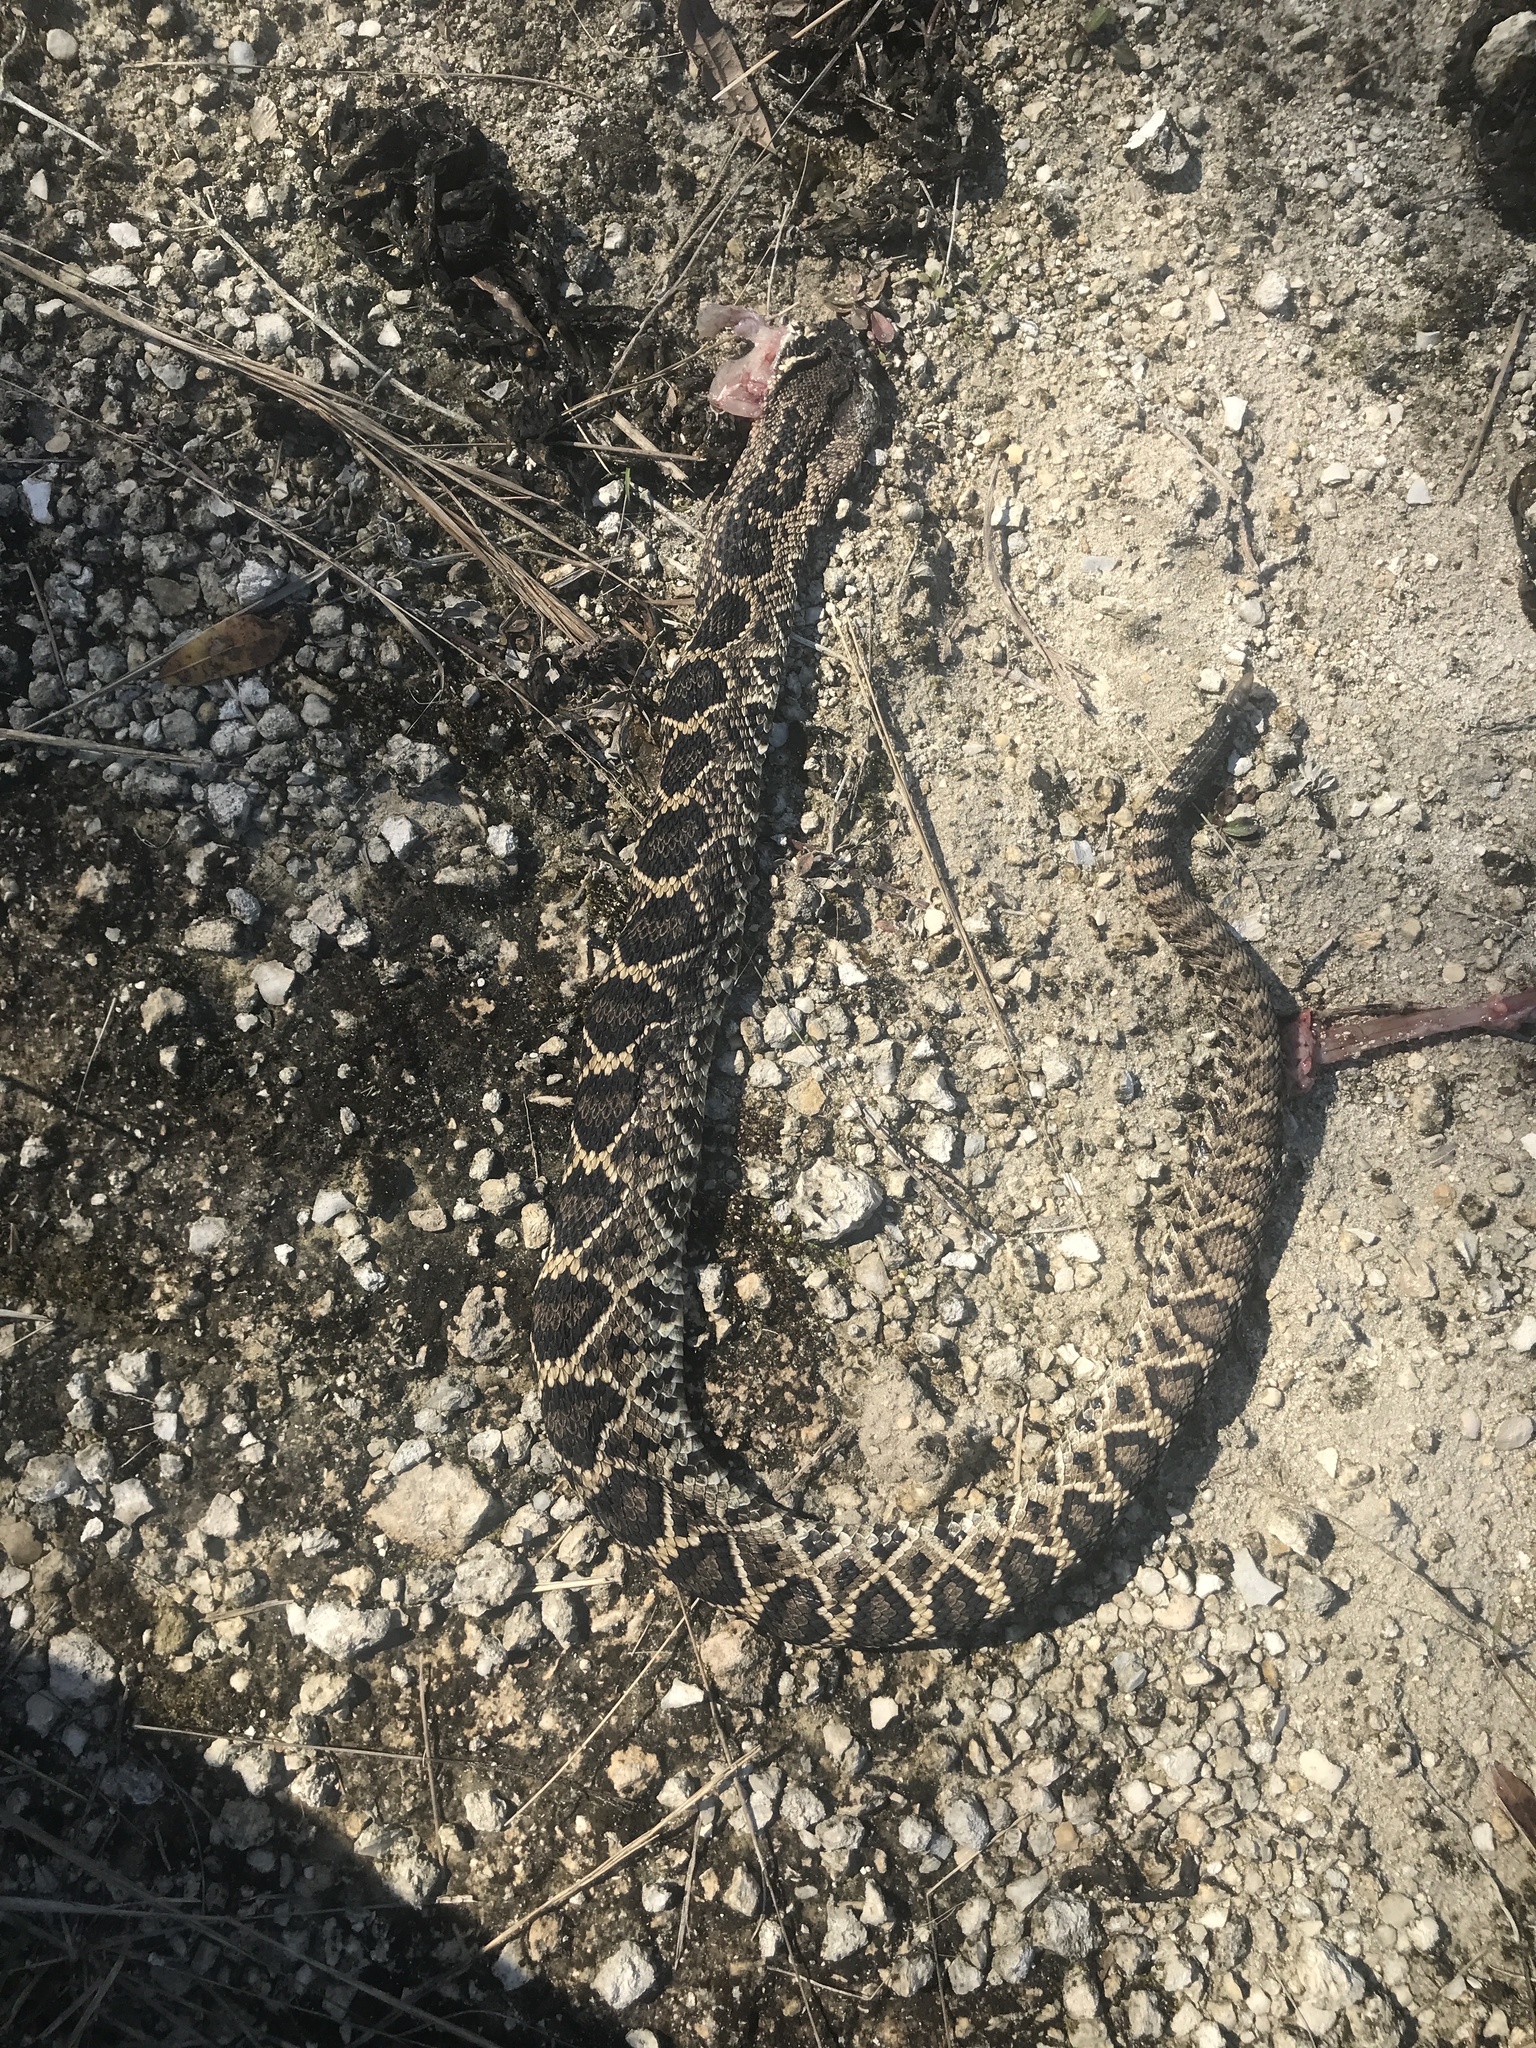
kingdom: Animalia
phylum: Chordata
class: Squamata
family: Viperidae
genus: Crotalus
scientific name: Crotalus adamanteus
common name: Eastern diamondback rattlesnake
